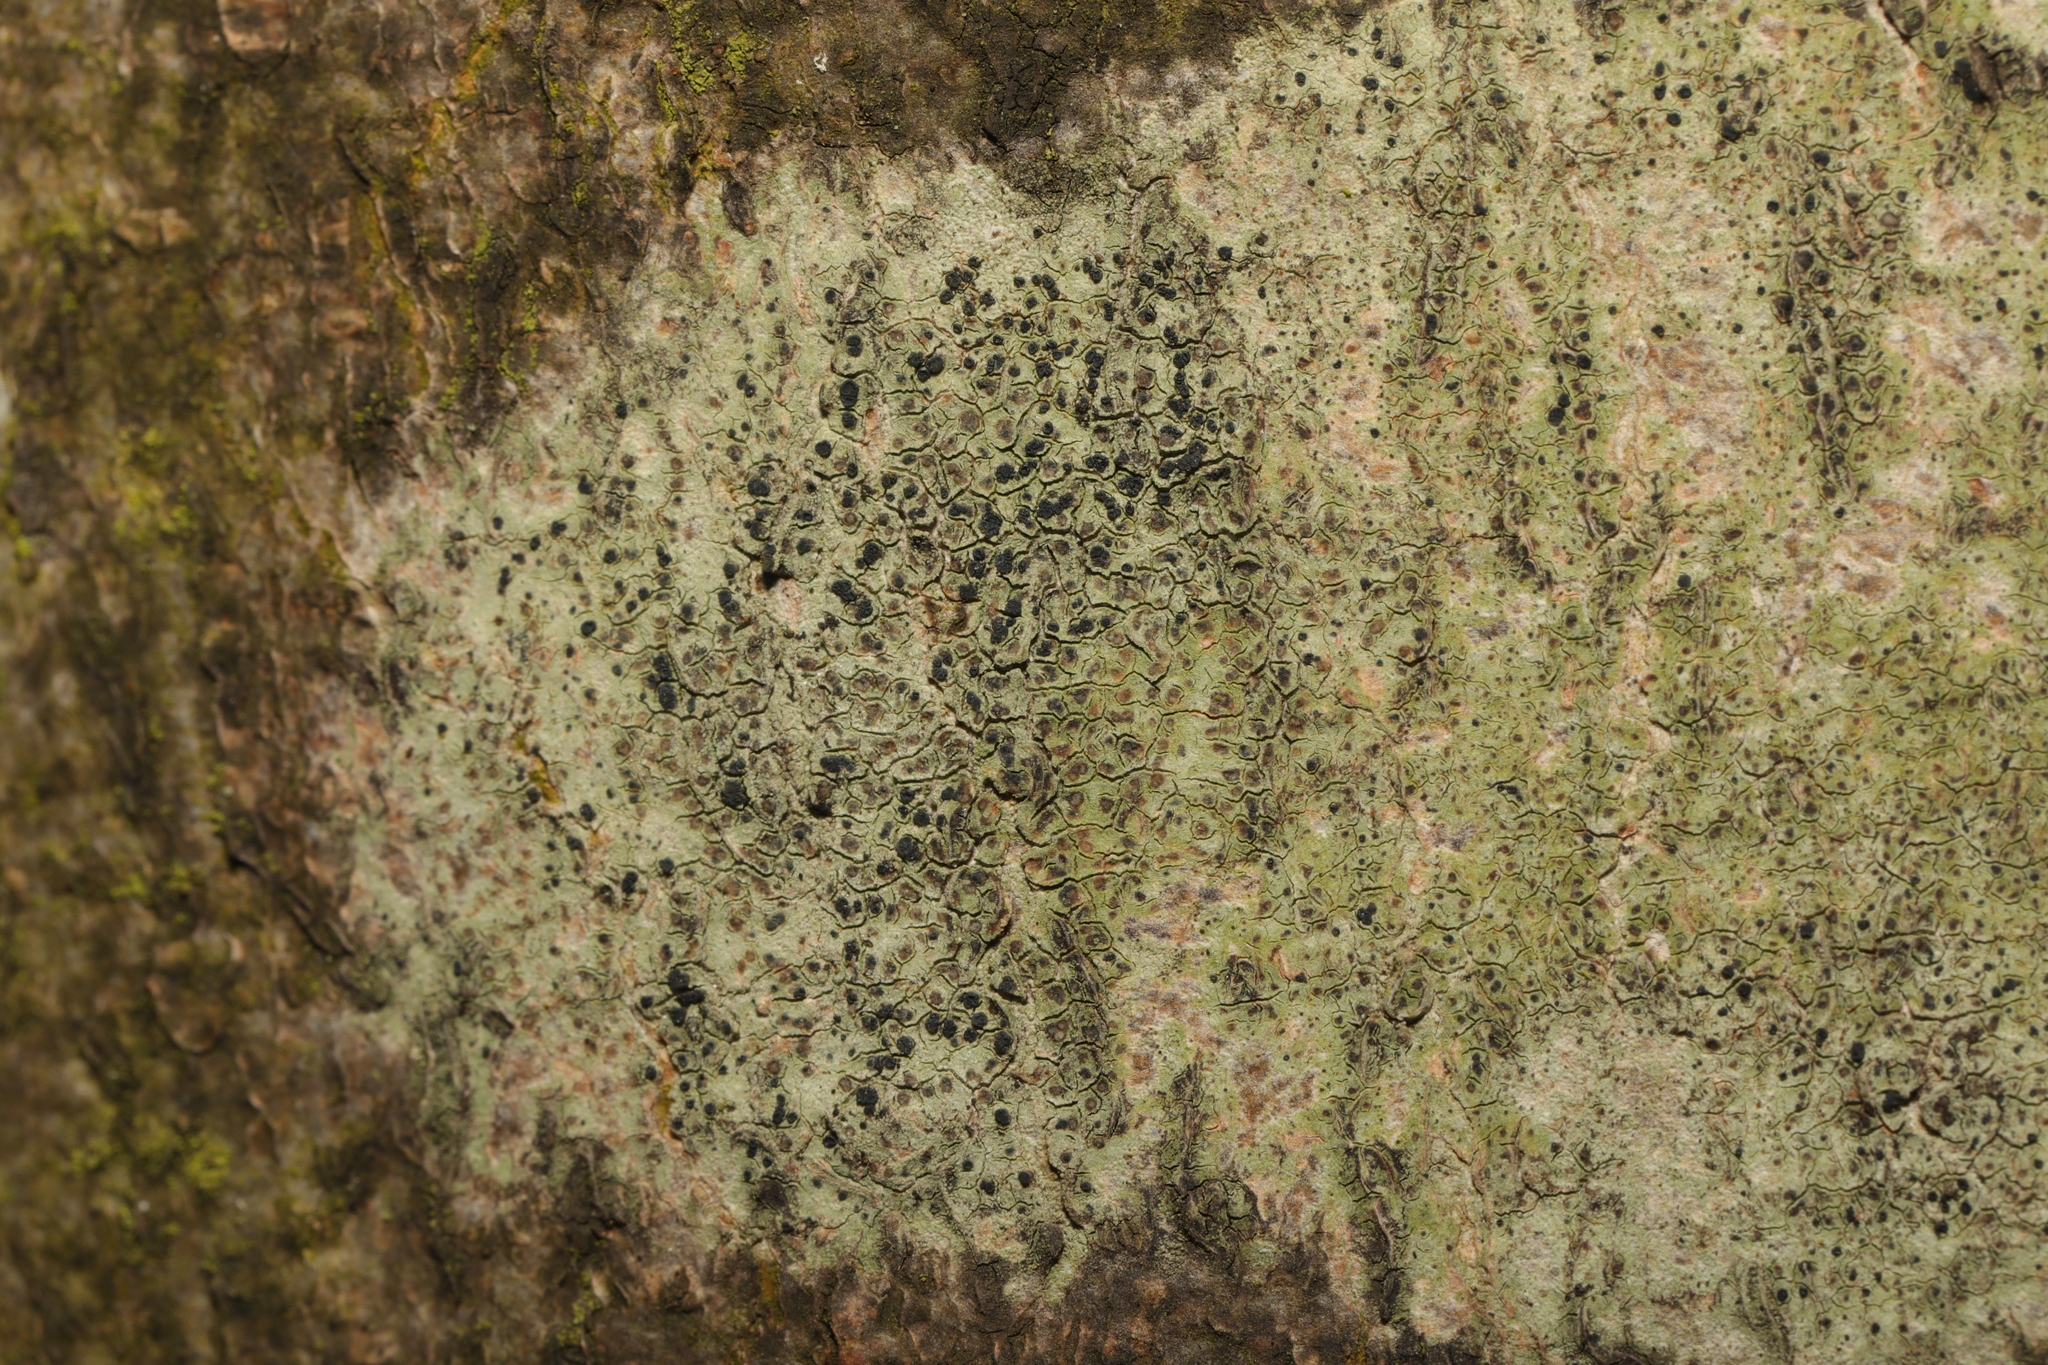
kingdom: Fungi
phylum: Ascomycota
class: Lecanoromycetes
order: Lecanorales
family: Lecanoraceae
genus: Lecidella
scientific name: Lecidella elaeochroma
